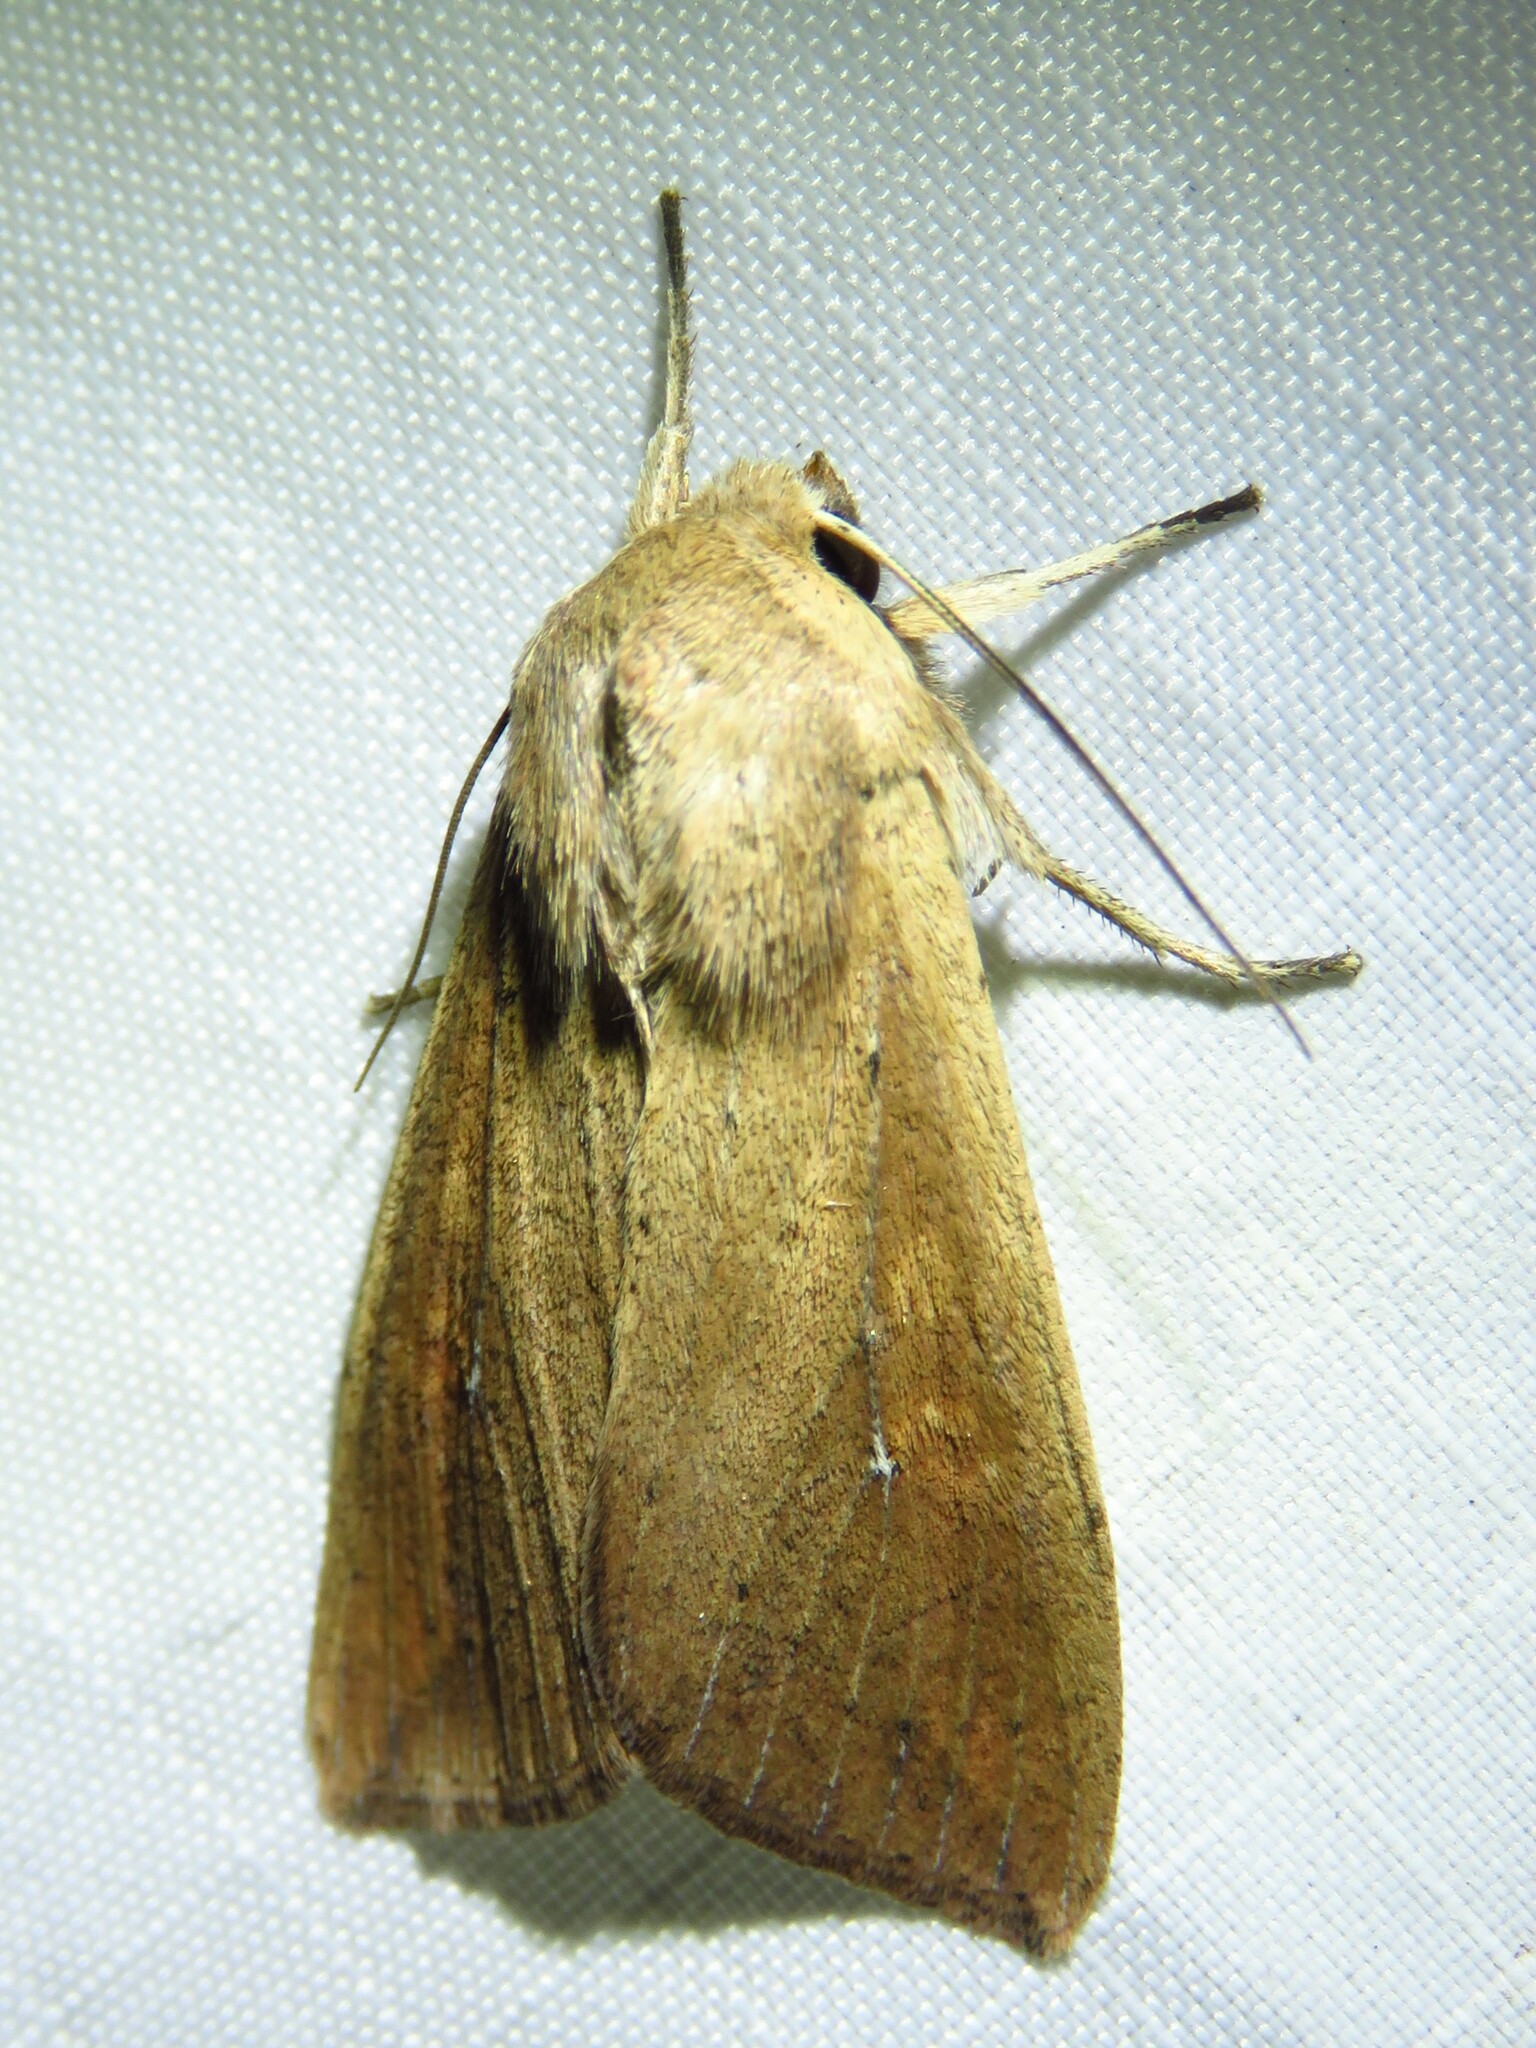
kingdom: Animalia
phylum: Arthropoda
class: Insecta
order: Lepidoptera
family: Noctuidae
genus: Mythimna
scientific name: Mythimna unipuncta
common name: White-speck
